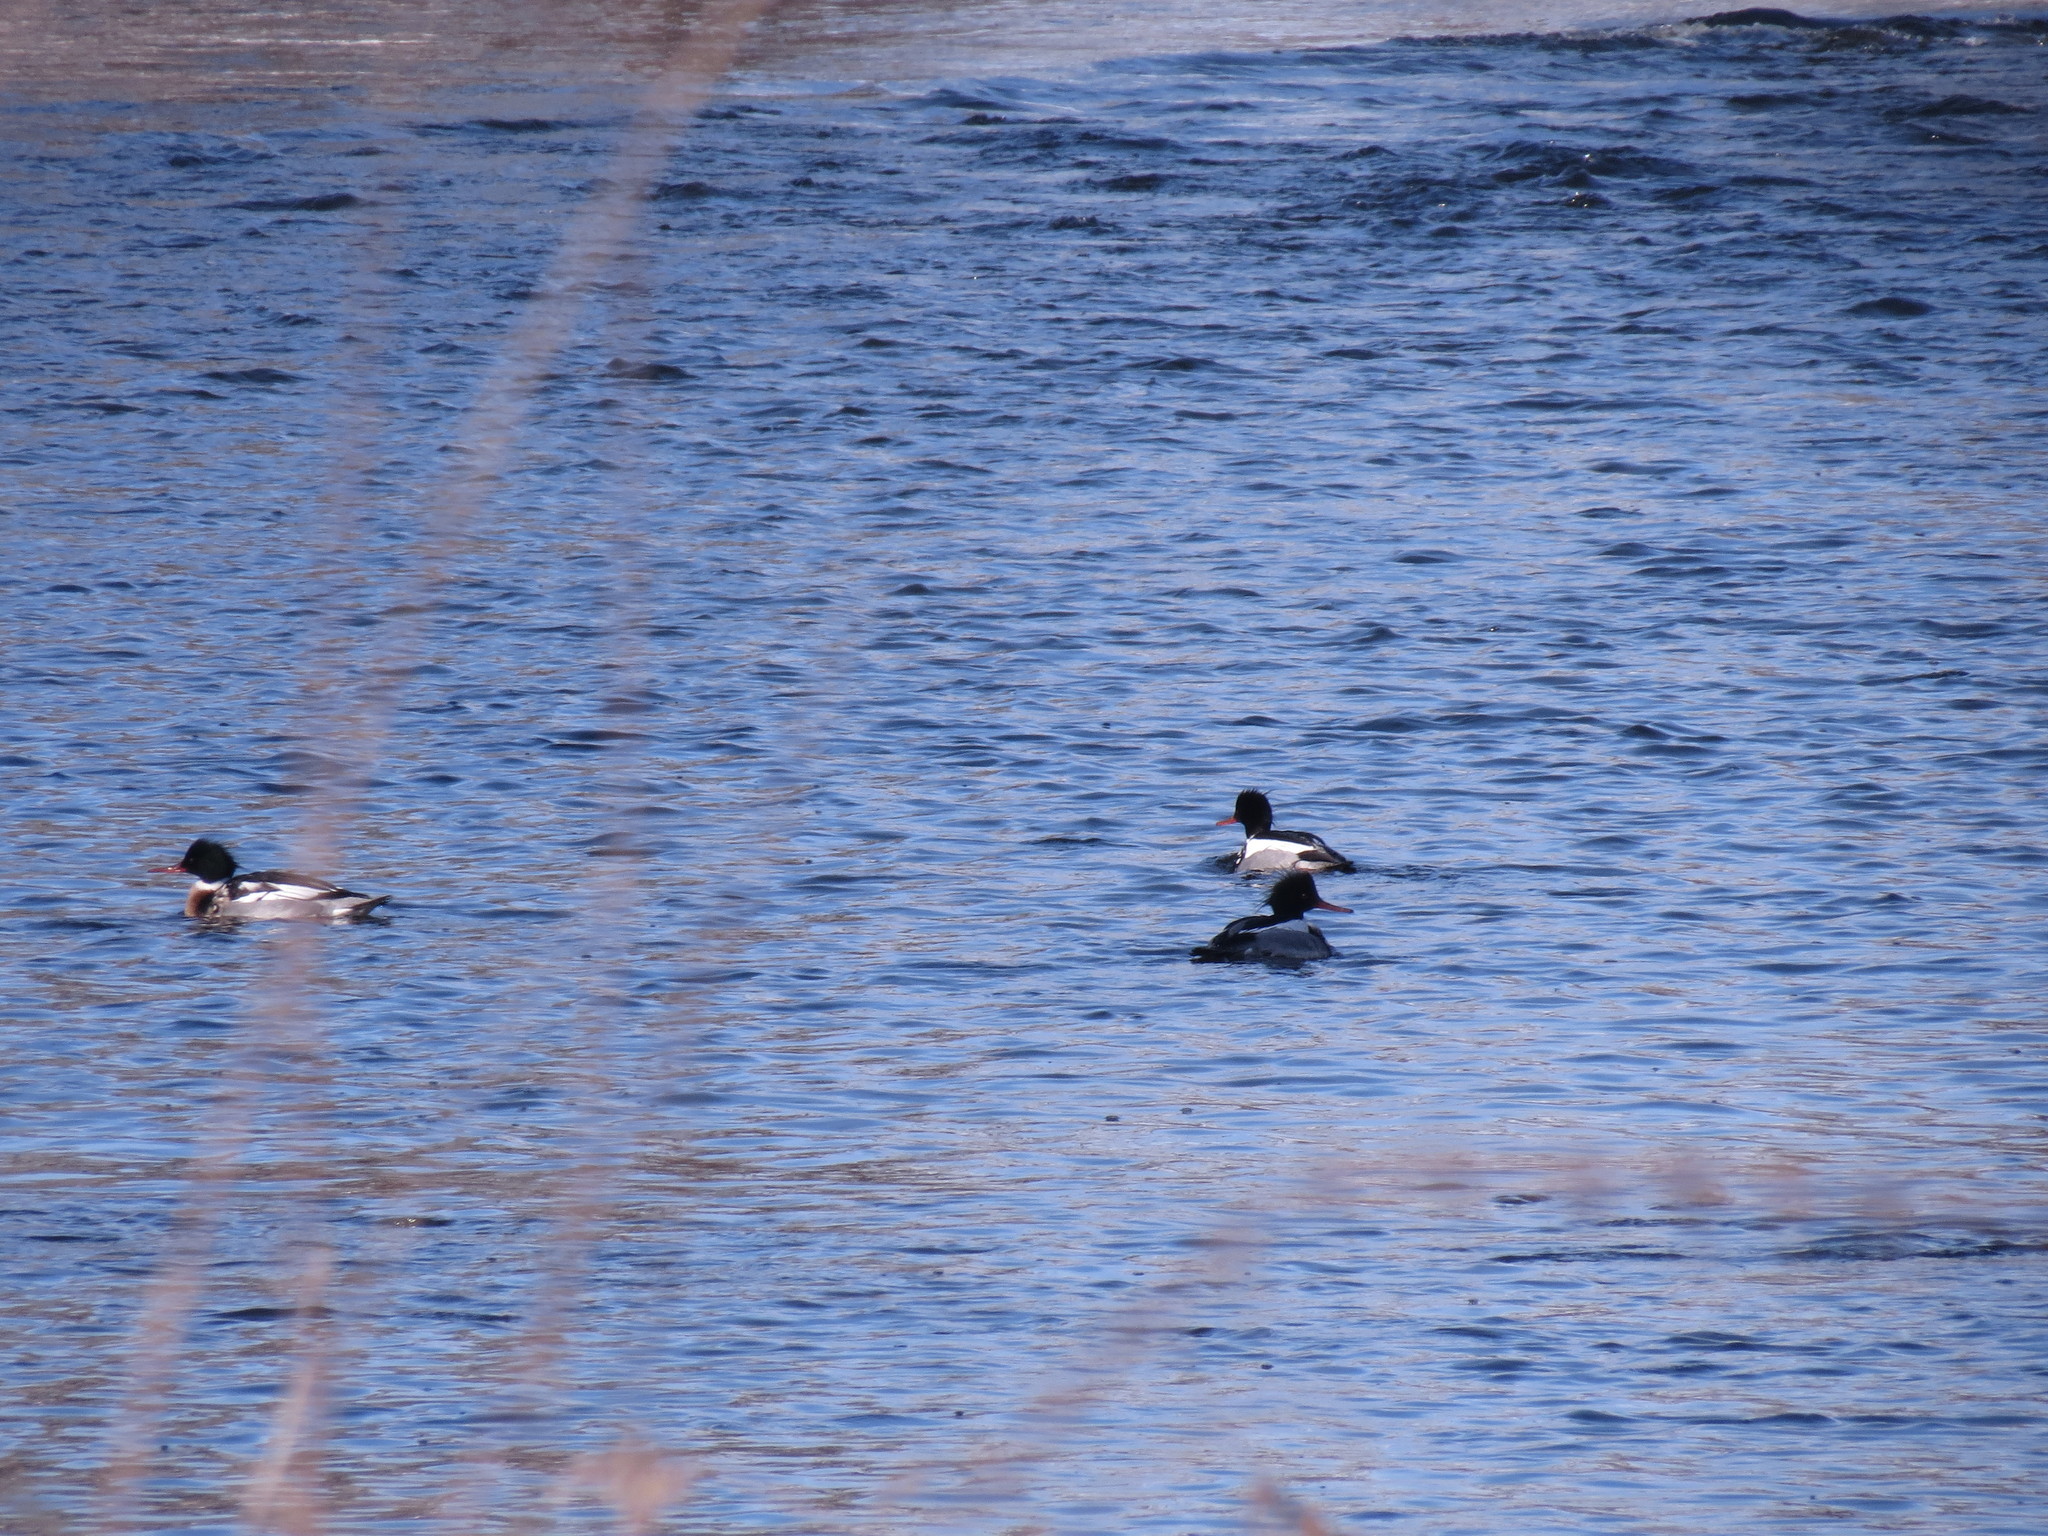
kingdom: Animalia
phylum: Chordata
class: Aves
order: Anseriformes
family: Anatidae
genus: Mergus
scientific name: Mergus serrator
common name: Red-breasted merganser
